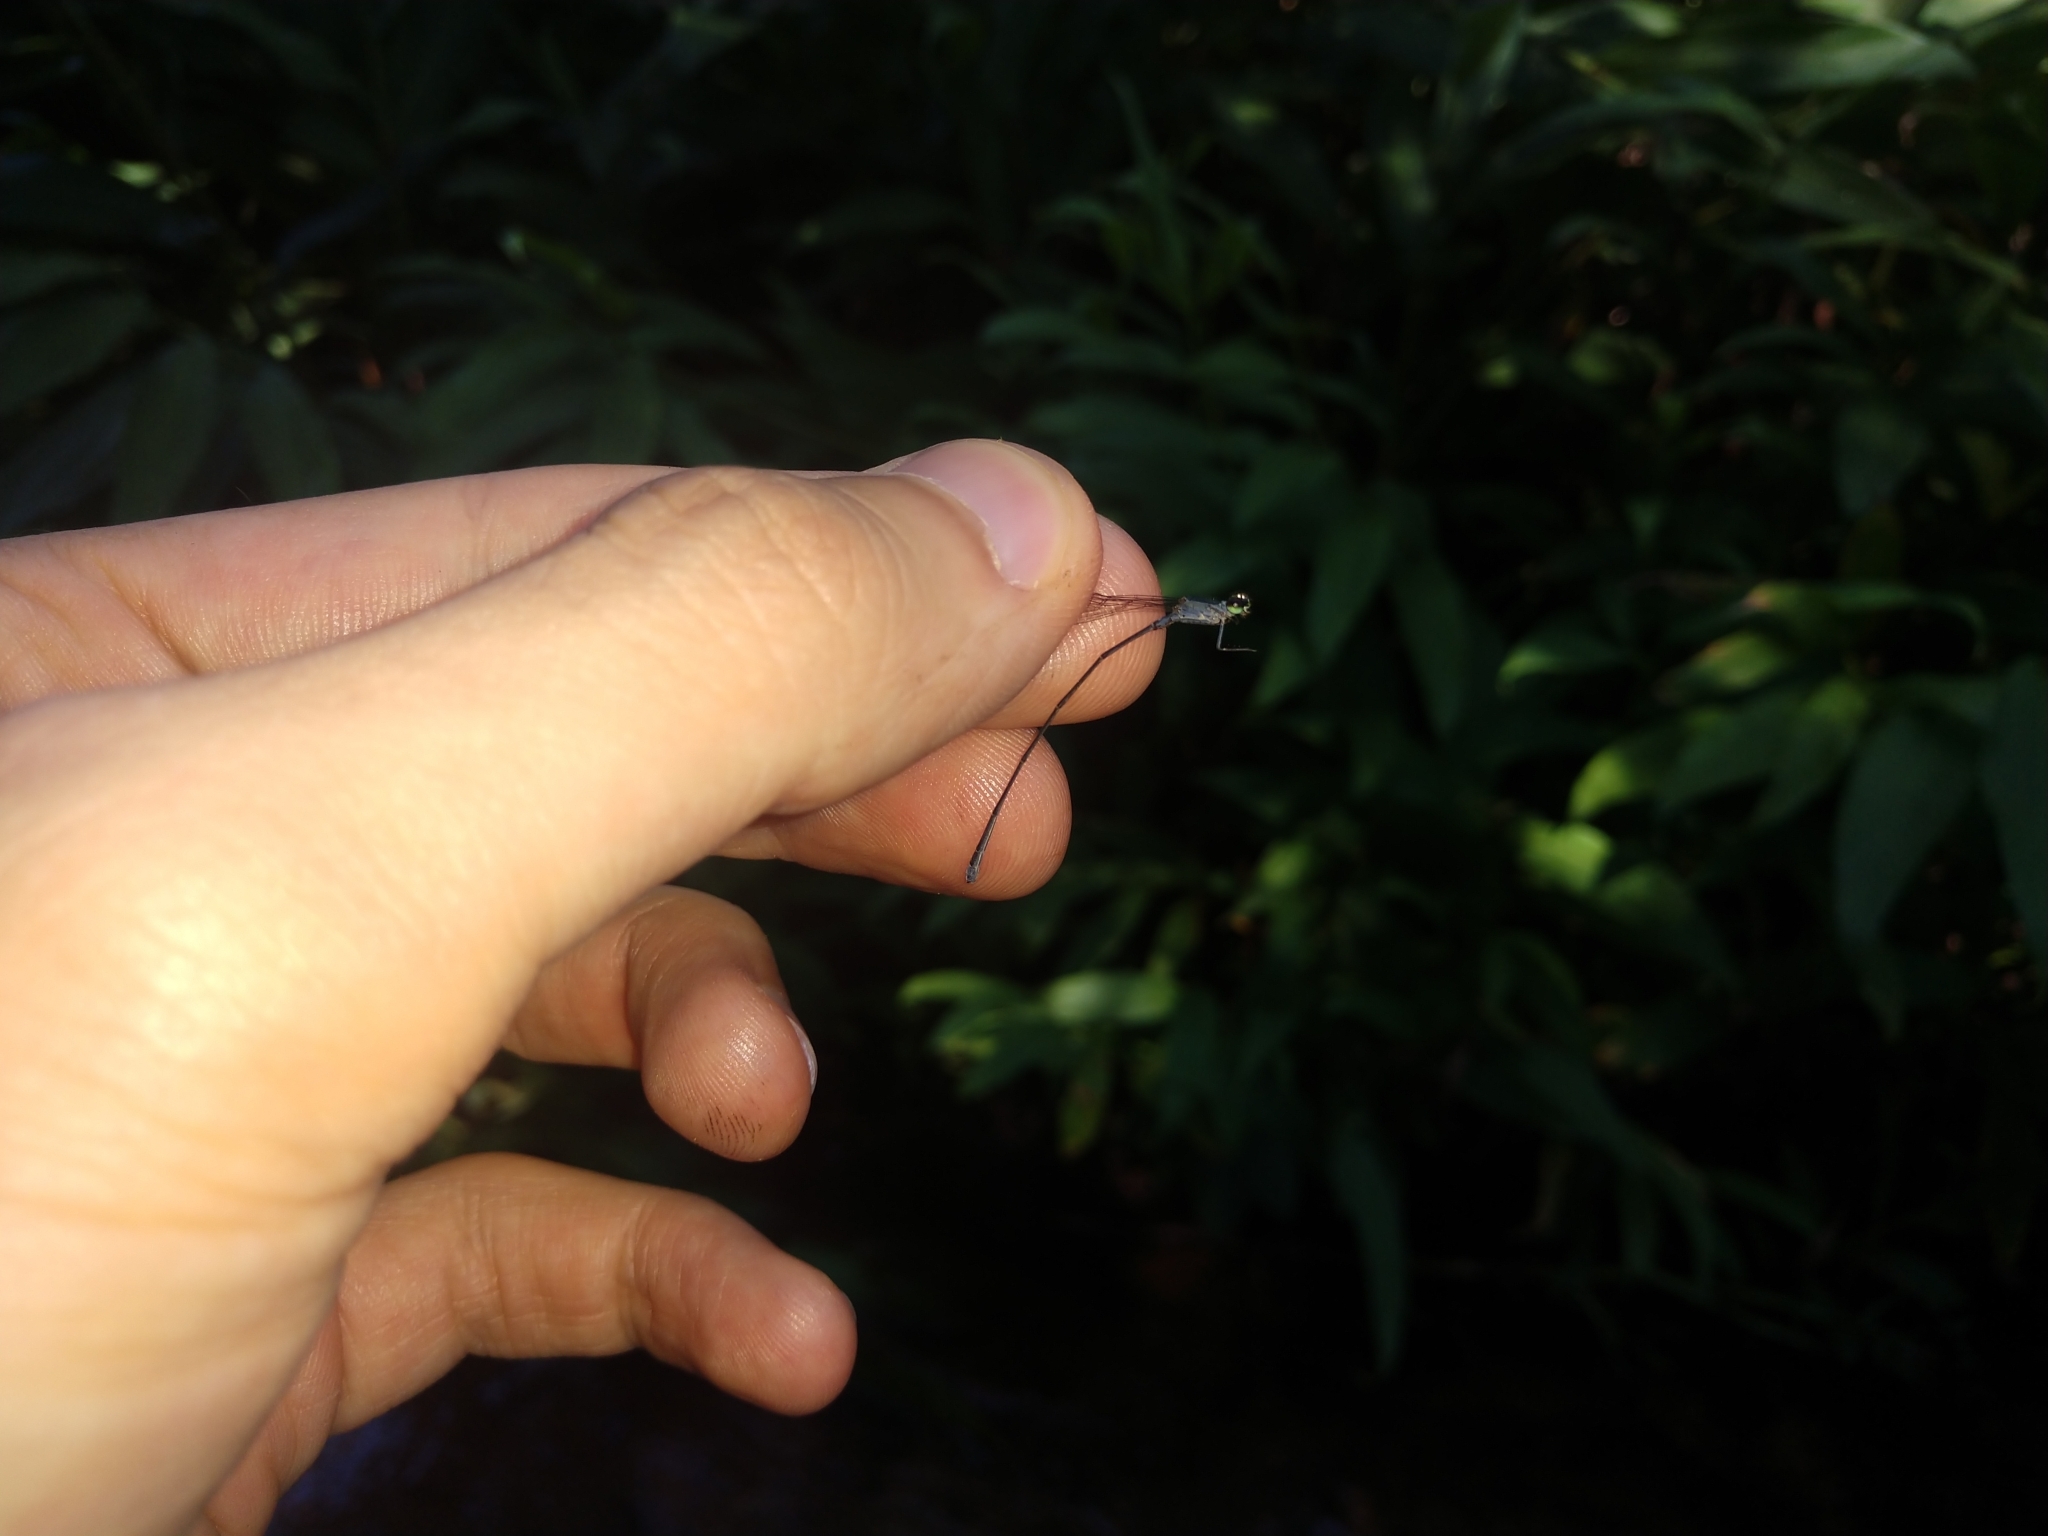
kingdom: Animalia
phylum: Arthropoda
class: Insecta
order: Odonata
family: Coenagrionidae
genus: Epipleoneura
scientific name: Epipleoneura venezuelensis
